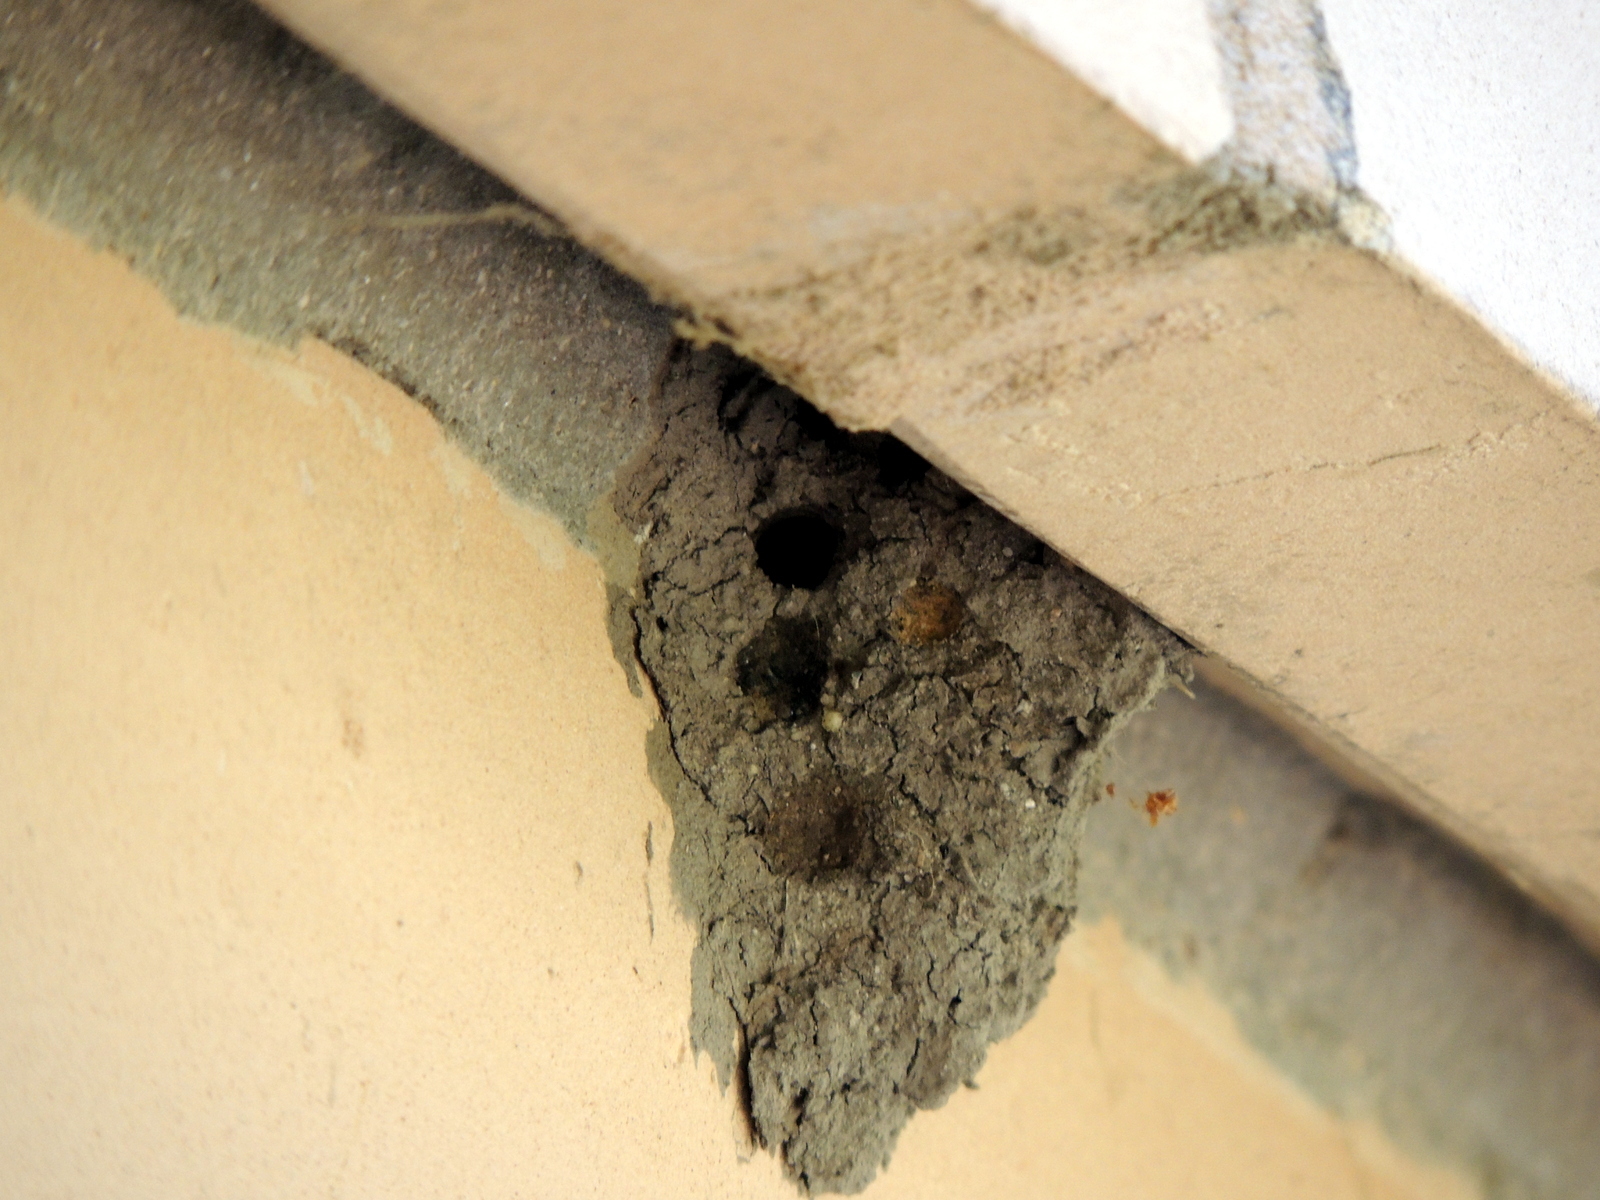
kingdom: Animalia
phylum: Arthropoda
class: Insecta
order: Hymenoptera
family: Sphecidae
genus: Sceliphron
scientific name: Sceliphron caementarium
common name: Mud dauber
